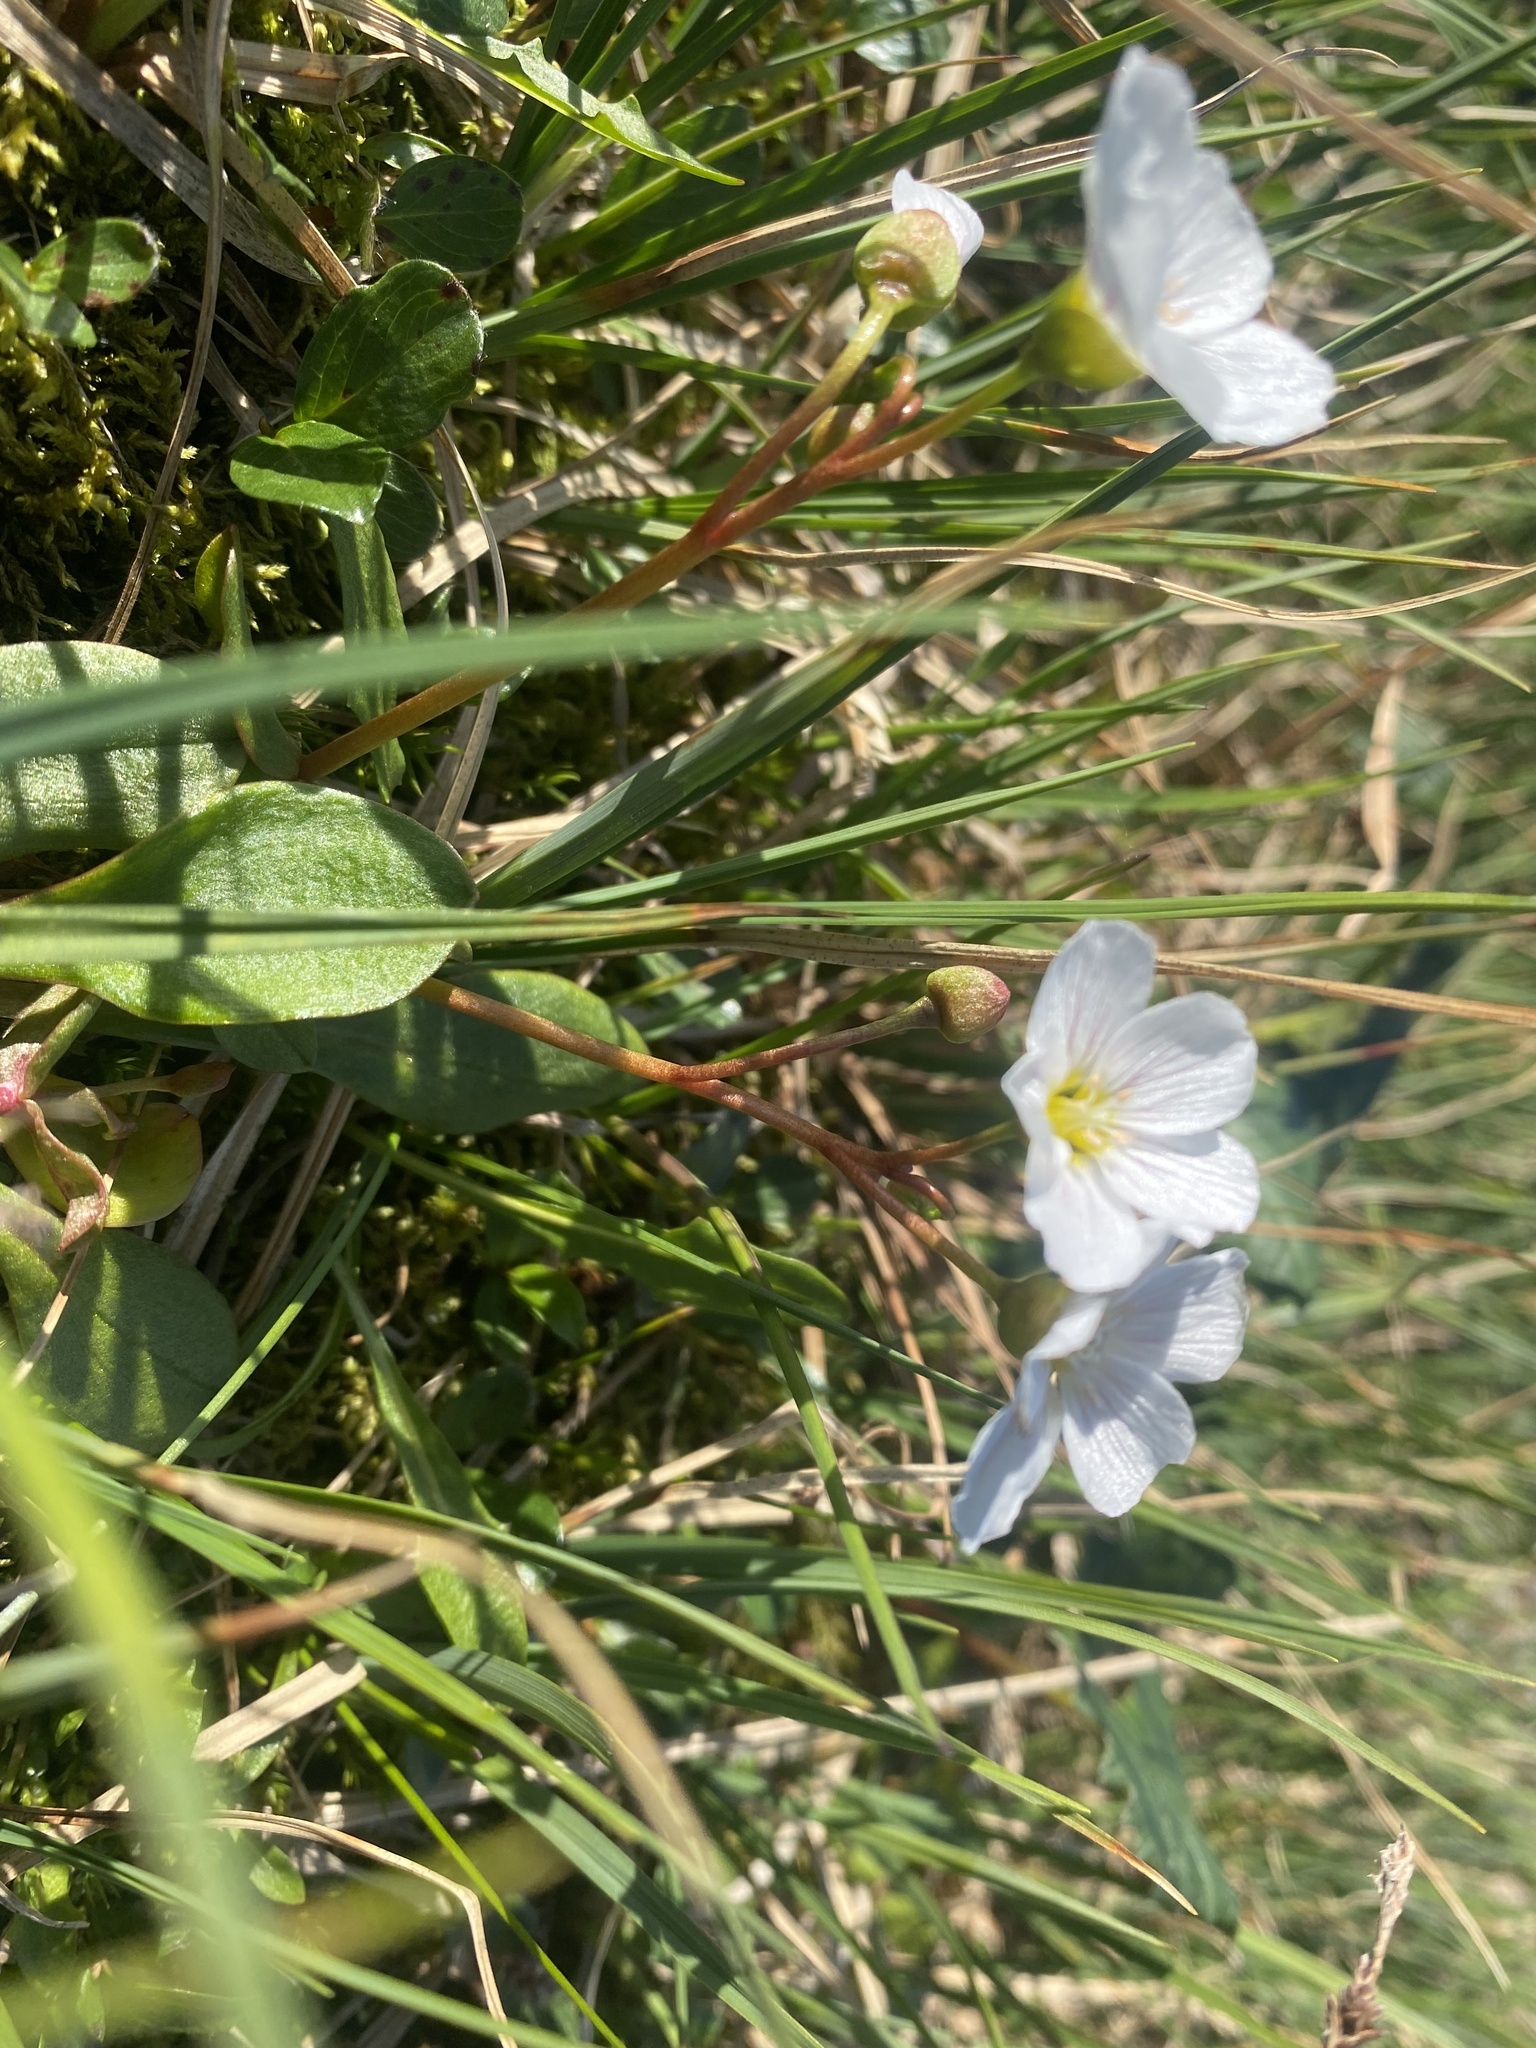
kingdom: Plantae
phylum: Tracheophyta
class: Magnoliopsida
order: Caryophyllales
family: Montiaceae
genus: Claytonia
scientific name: Claytonia joanneana
